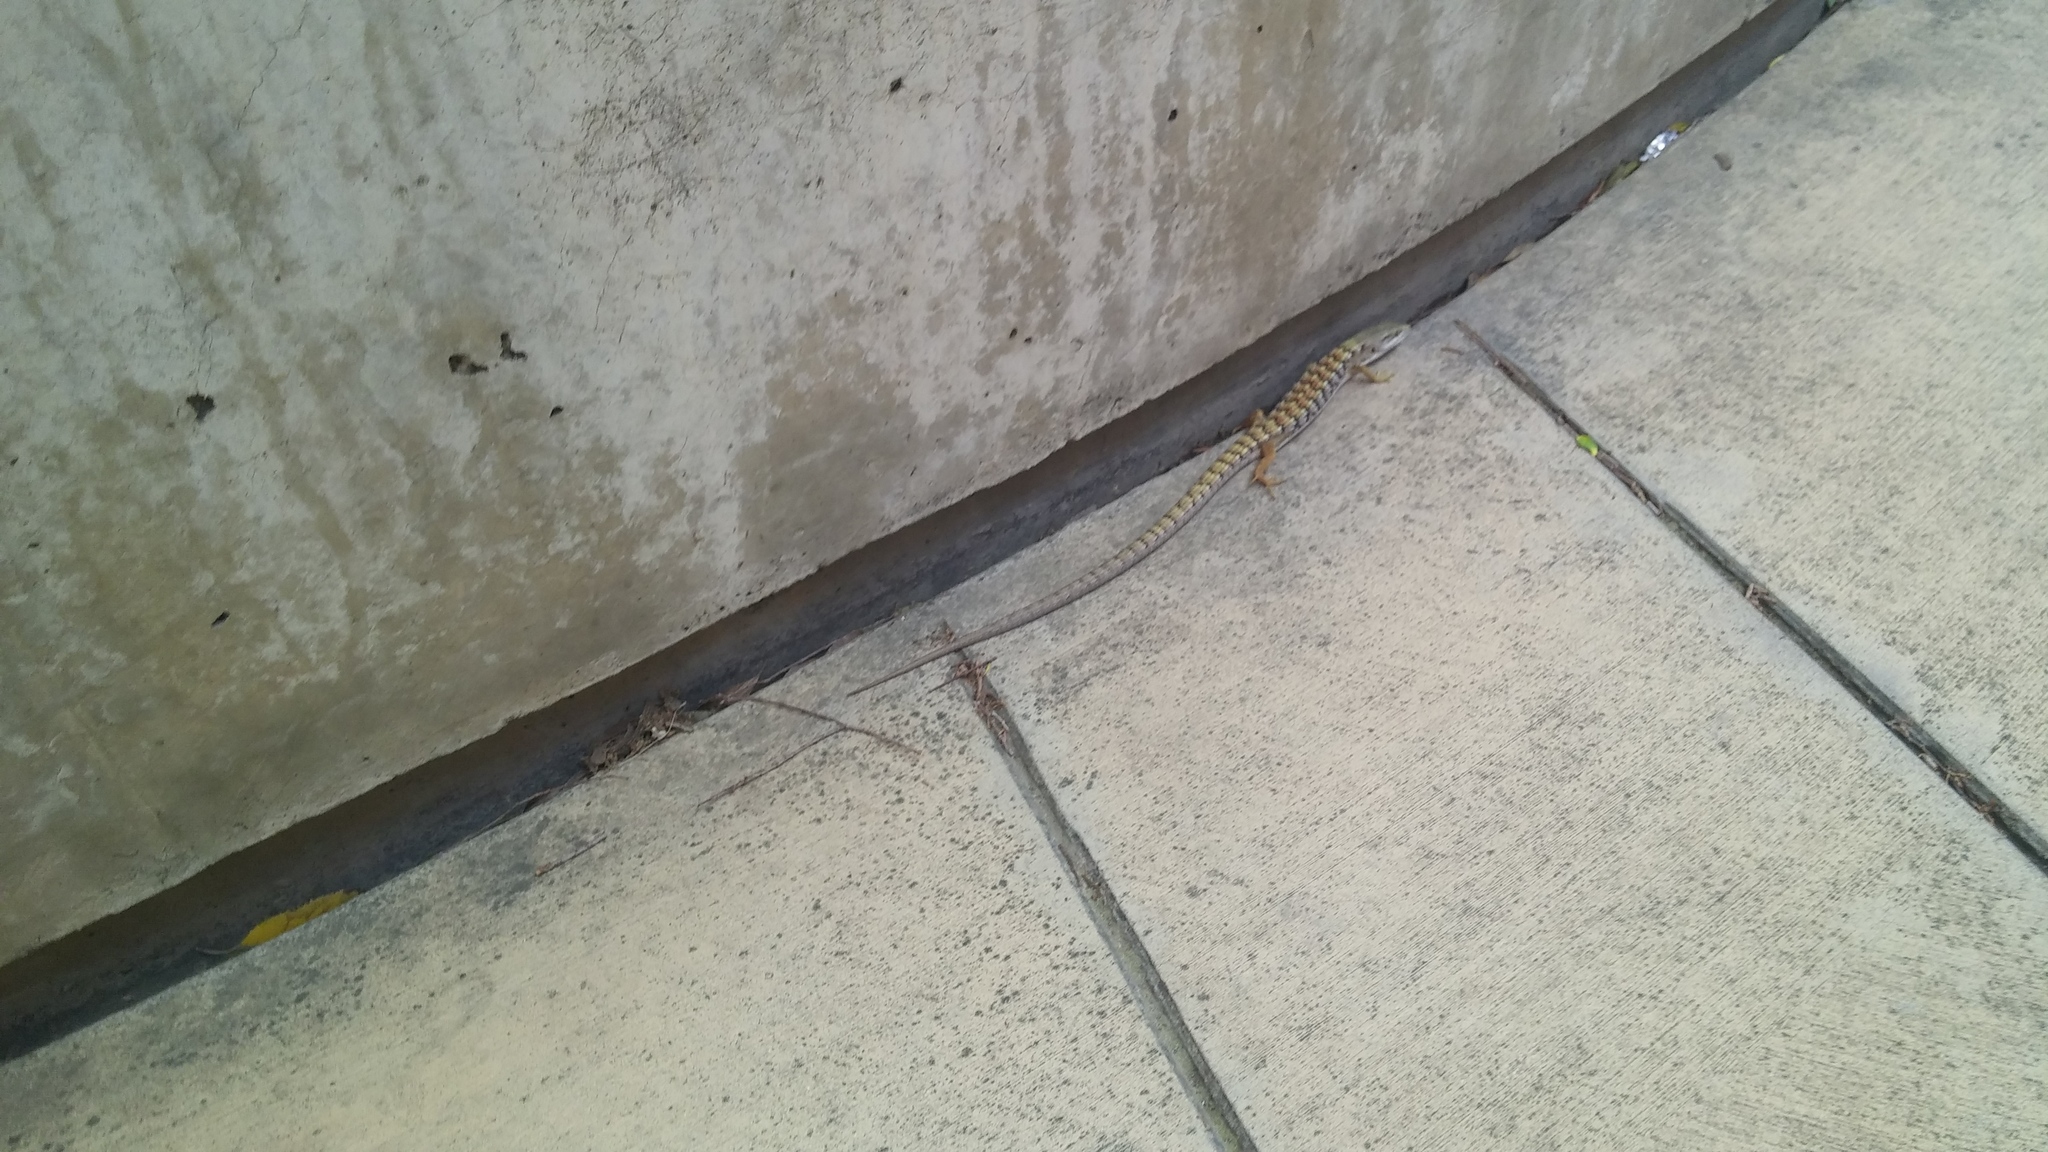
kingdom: Animalia
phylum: Chordata
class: Squamata
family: Anguidae
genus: Elgaria
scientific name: Elgaria multicarinata
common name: Southern alligator lizard
